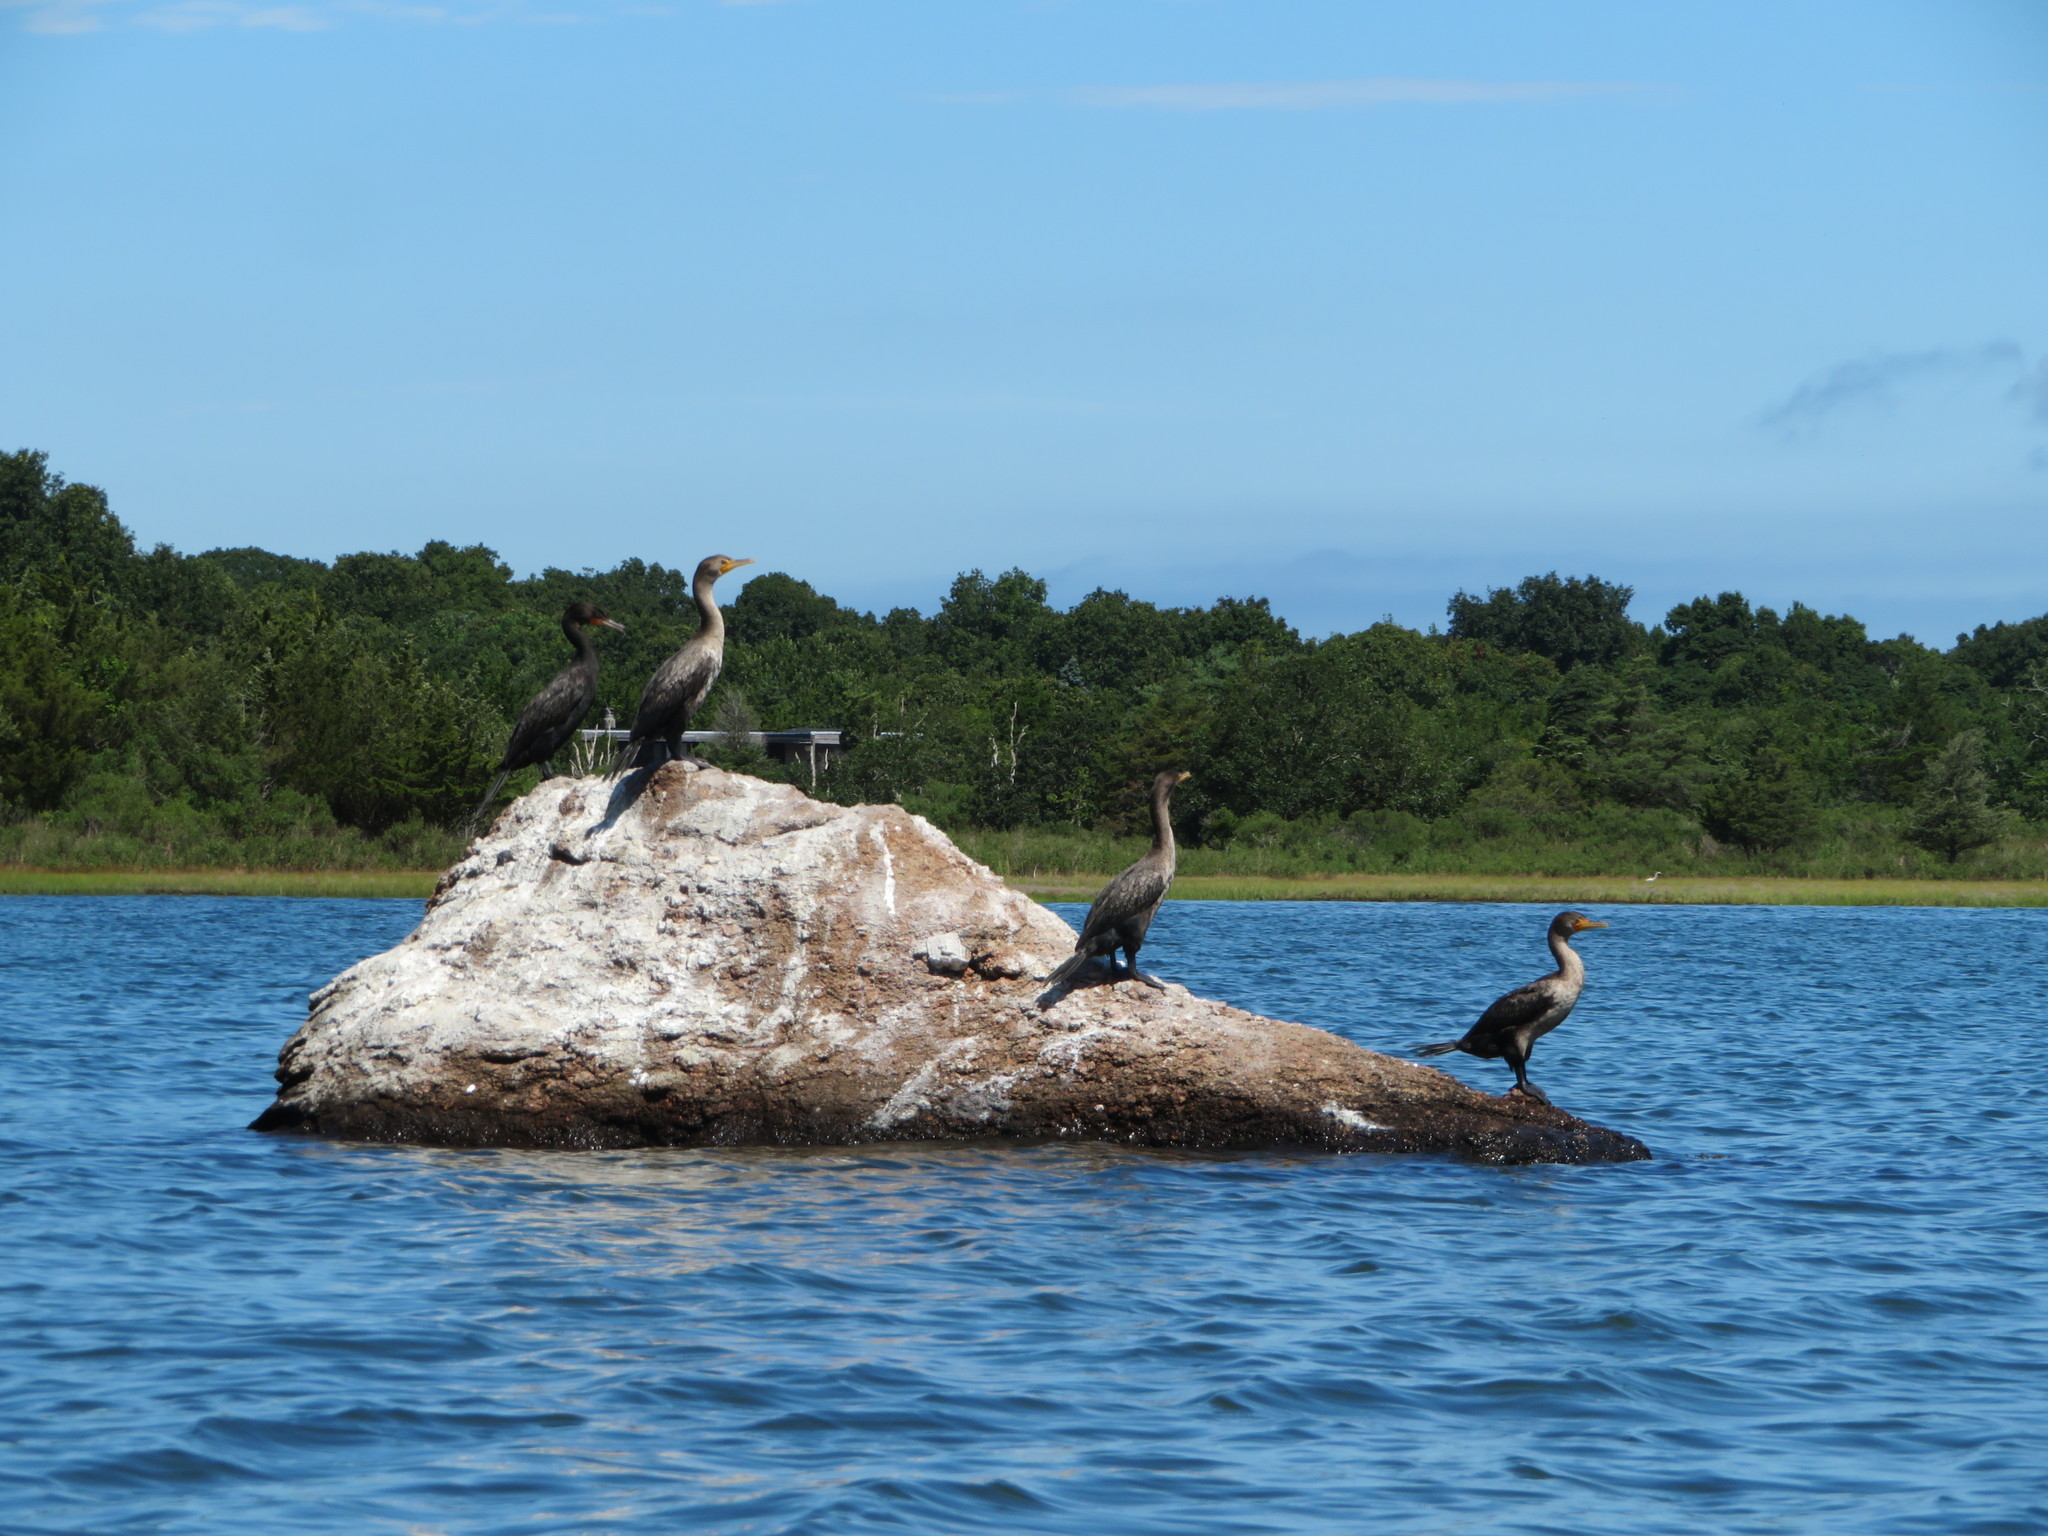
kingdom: Animalia
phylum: Chordata
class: Aves
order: Suliformes
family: Phalacrocoracidae
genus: Phalacrocorax
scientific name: Phalacrocorax auritus
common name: Double-crested cormorant
